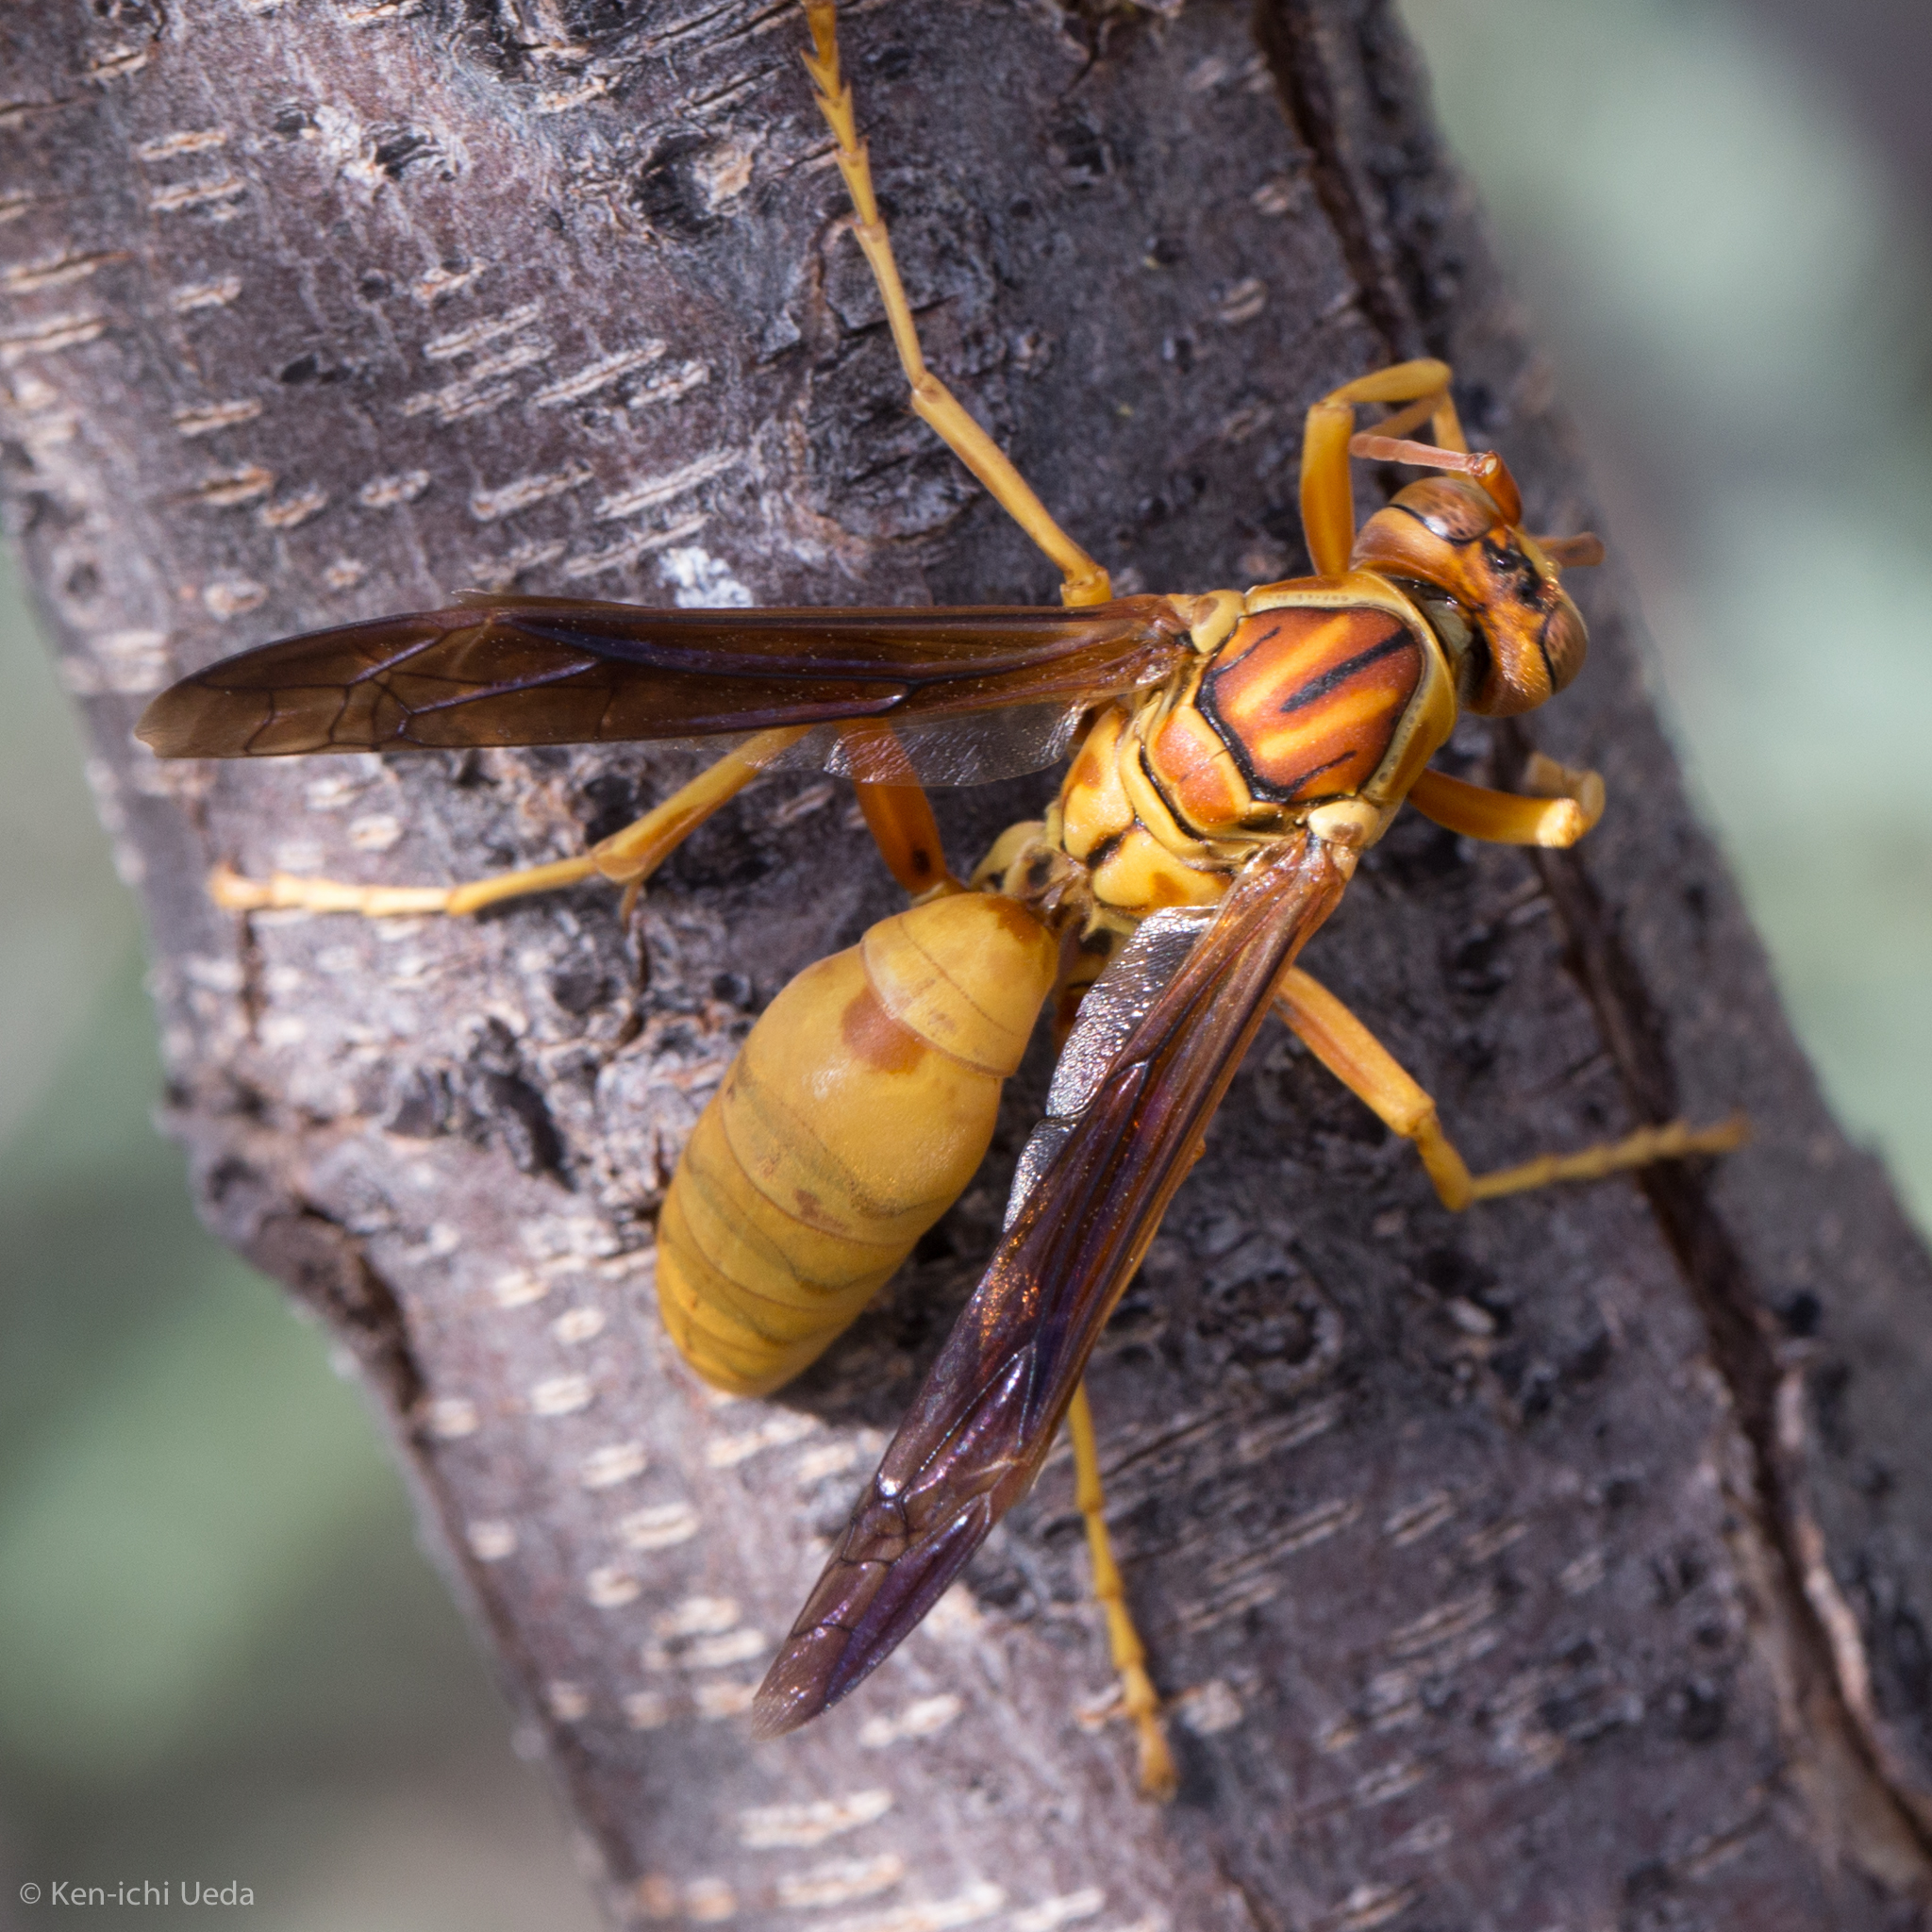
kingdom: Animalia
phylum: Arthropoda
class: Insecta
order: Hymenoptera
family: Eumenidae
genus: Polistes
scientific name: Polistes flavus
